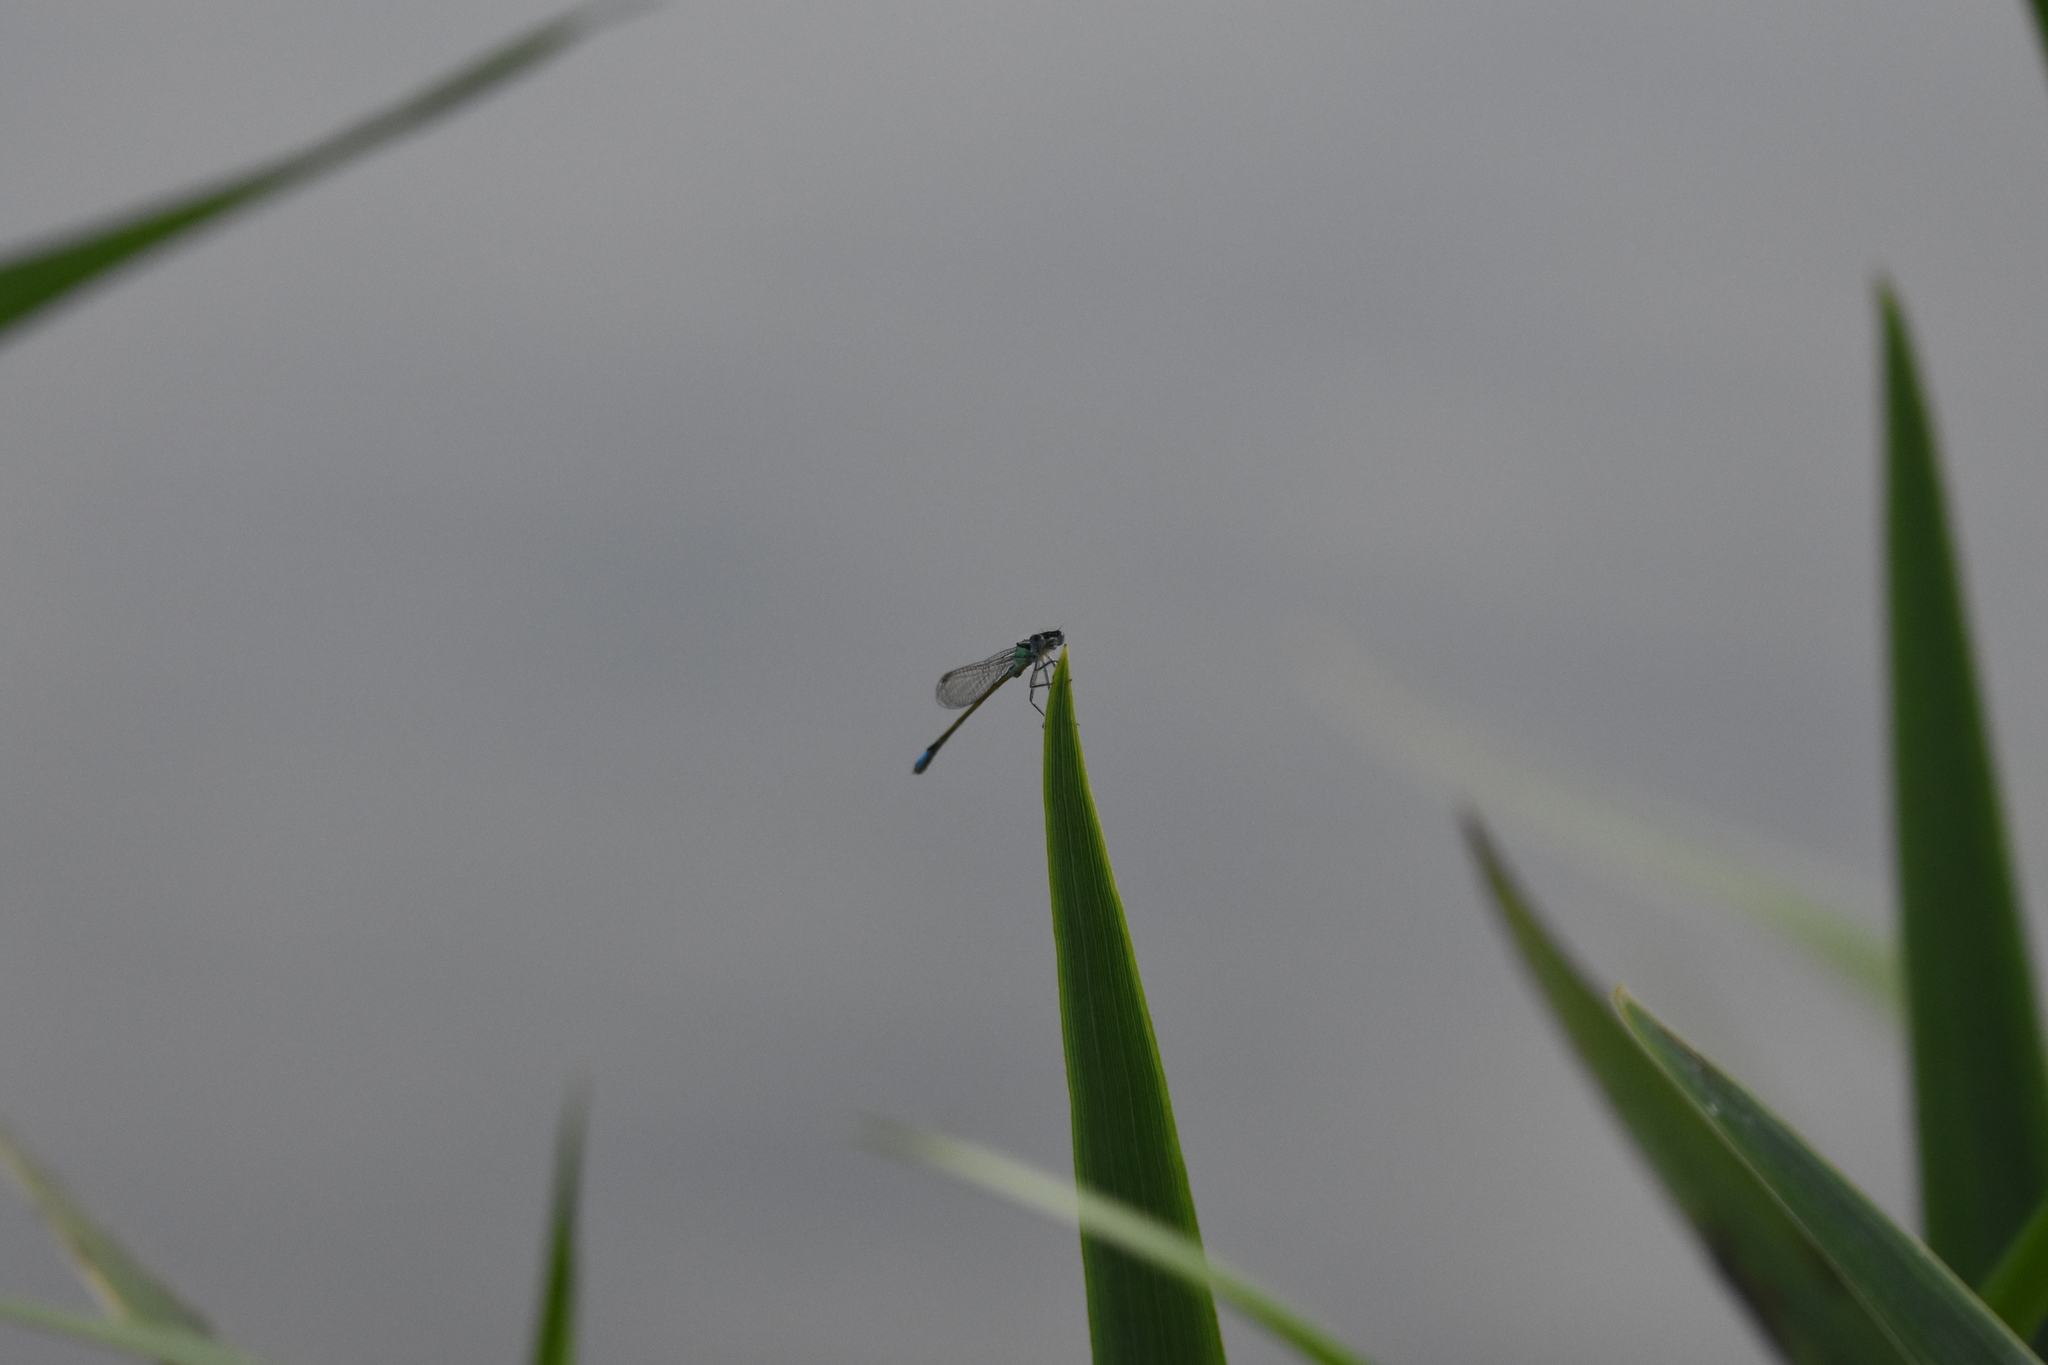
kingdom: Animalia
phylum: Arthropoda
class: Insecta
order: Odonata
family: Coenagrionidae
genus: Ischnura
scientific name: Ischnura elegans
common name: Blue-tailed damselfly
